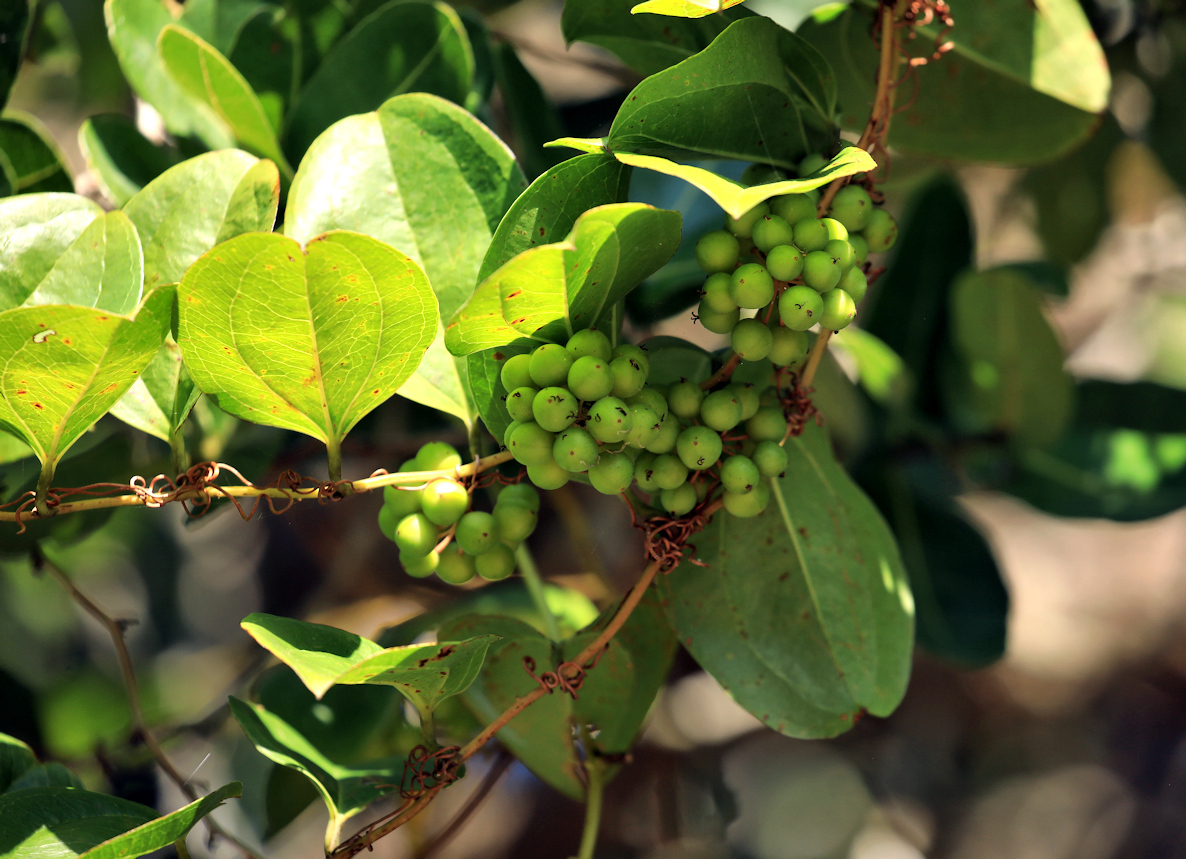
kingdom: Plantae
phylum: Tracheophyta
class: Liliopsida
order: Liliales
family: Smilacaceae
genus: Smilax
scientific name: Smilax anceps
